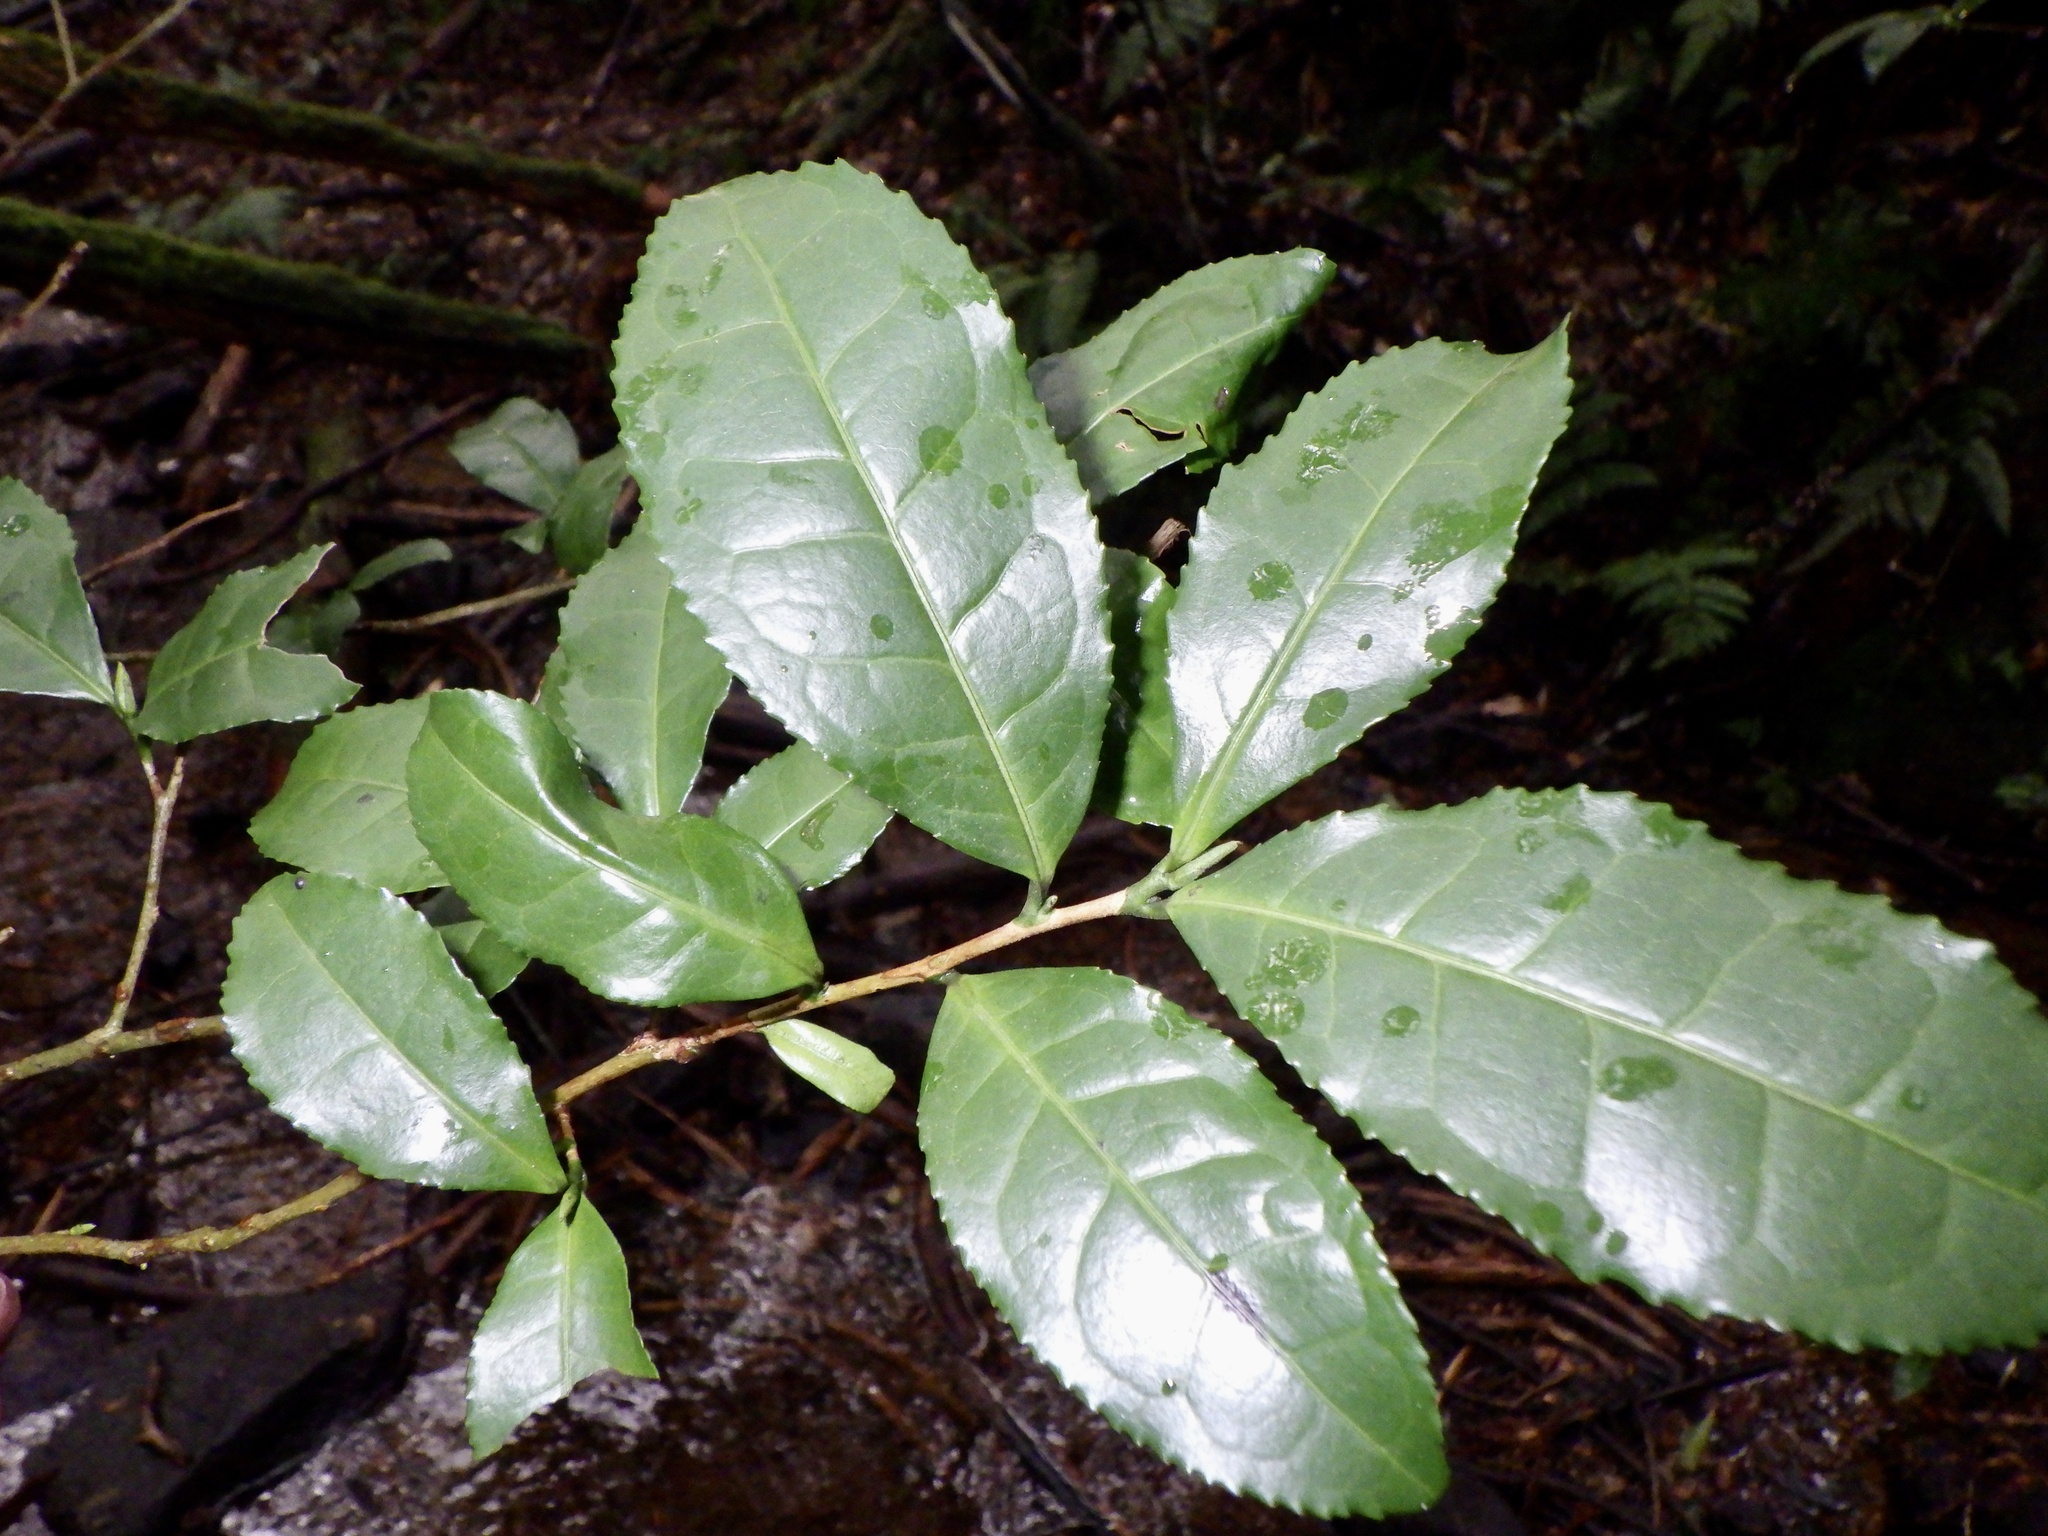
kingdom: Plantae
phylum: Tracheophyta
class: Magnoliopsida
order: Ericales
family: Theaceae
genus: Camellia
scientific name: Camellia sinensis
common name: Tea
